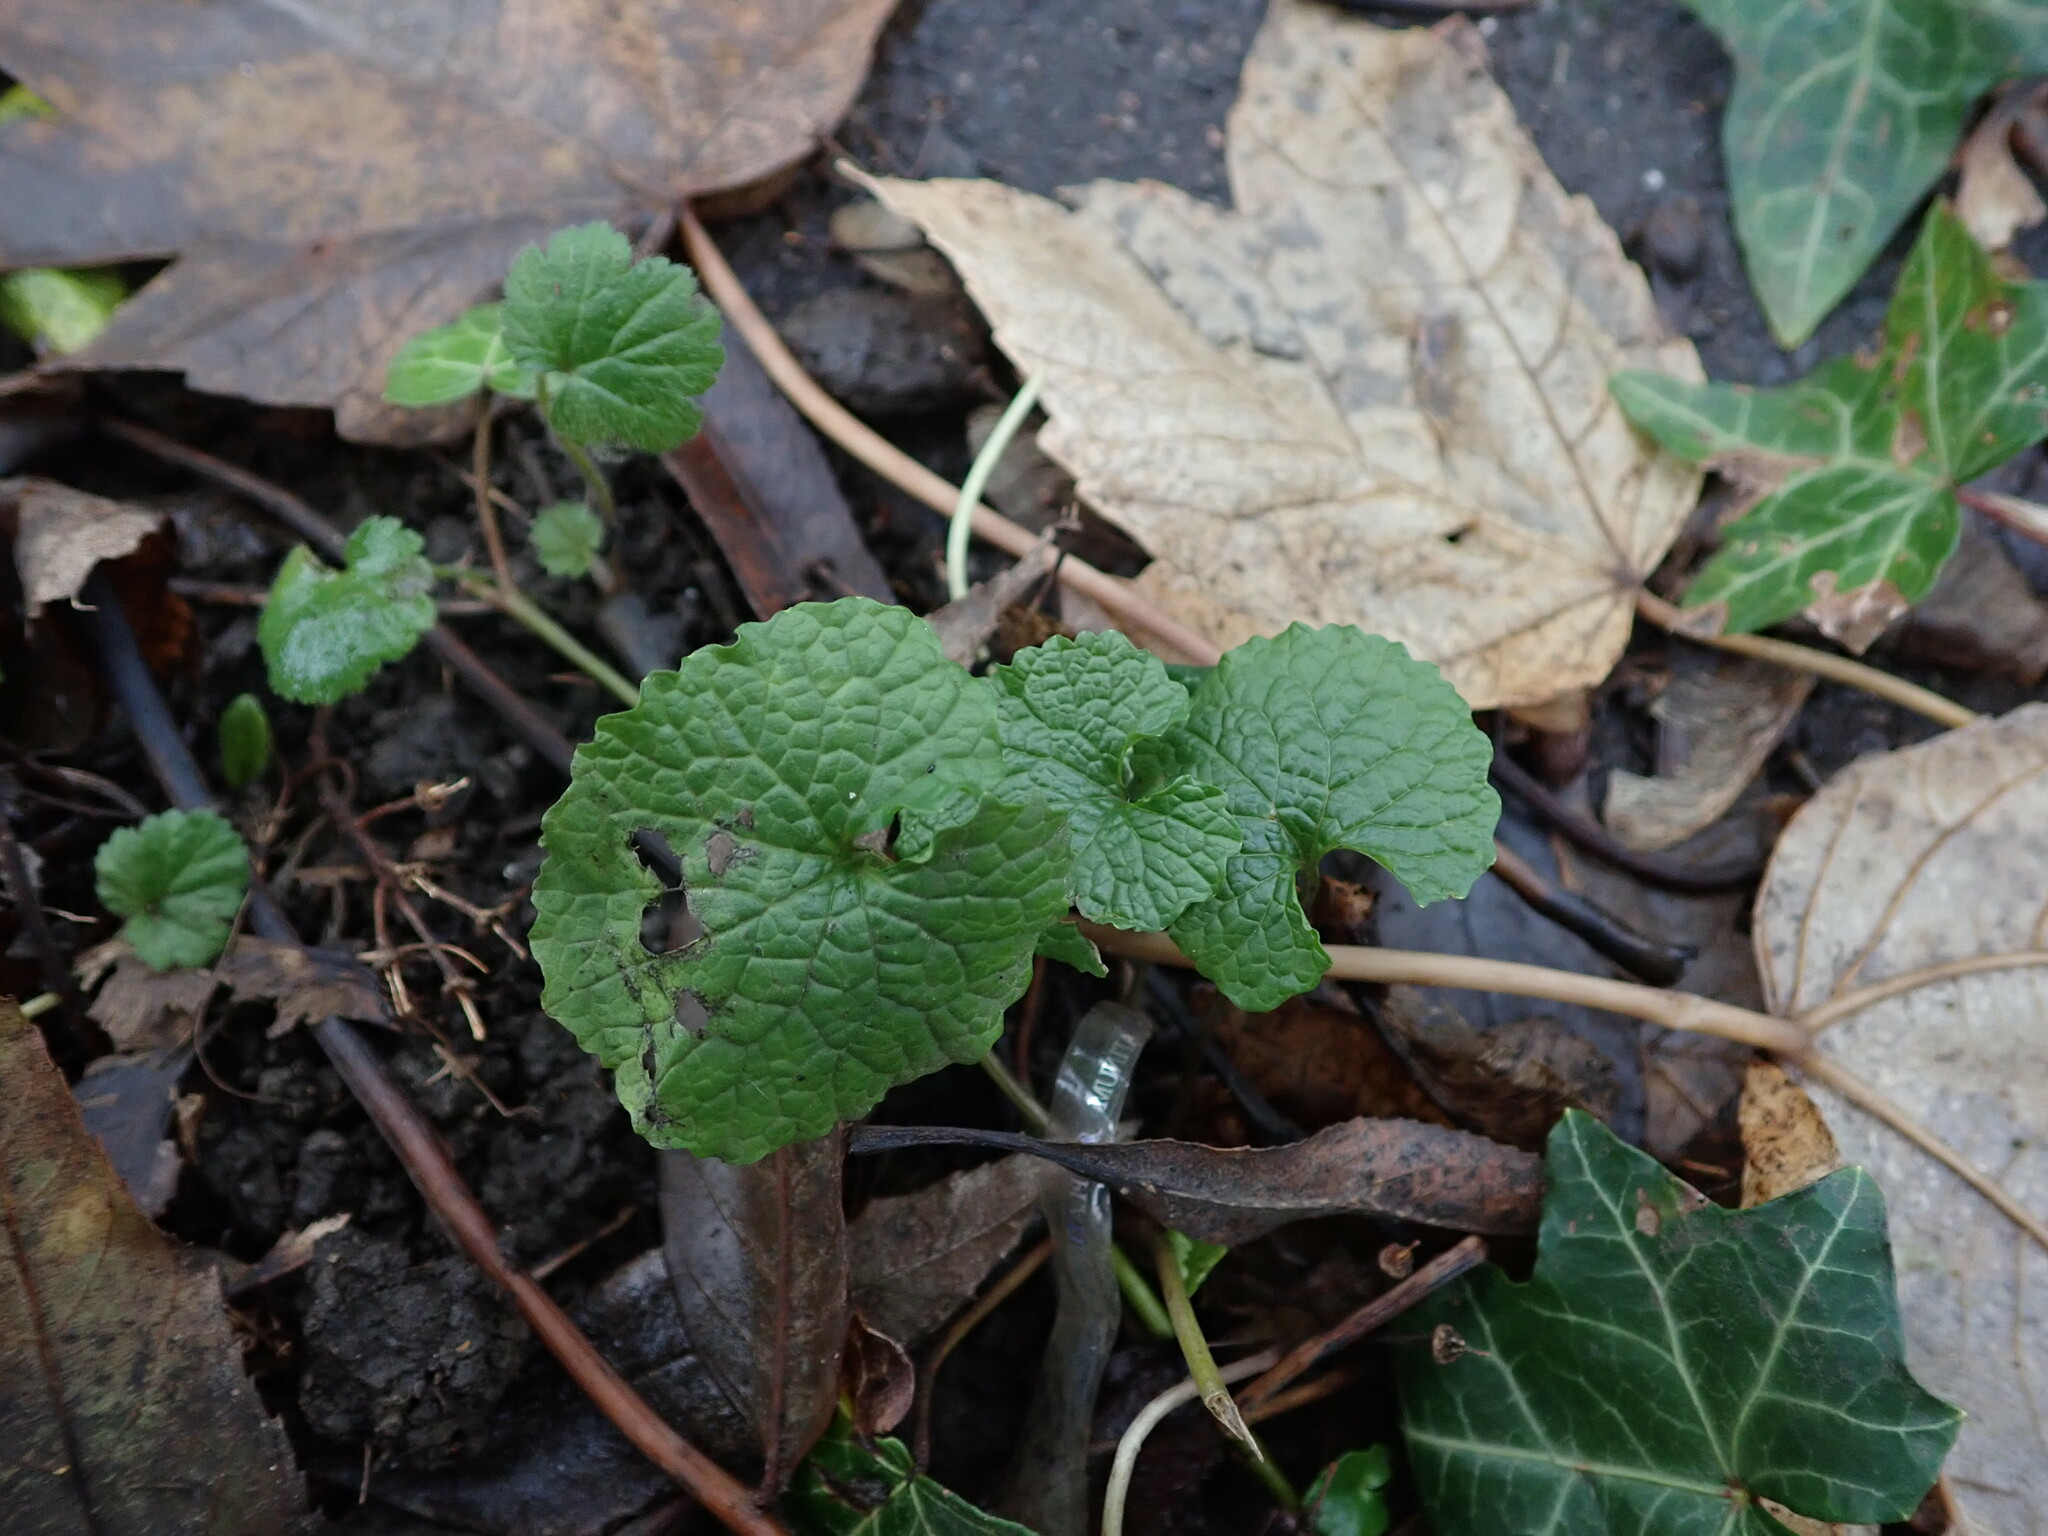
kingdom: Plantae
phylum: Tracheophyta
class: Magnoliopsida
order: Brassicales
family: Brassicaceae
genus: Alliaria
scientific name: Alliaria petiolata
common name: Garlic mustard
